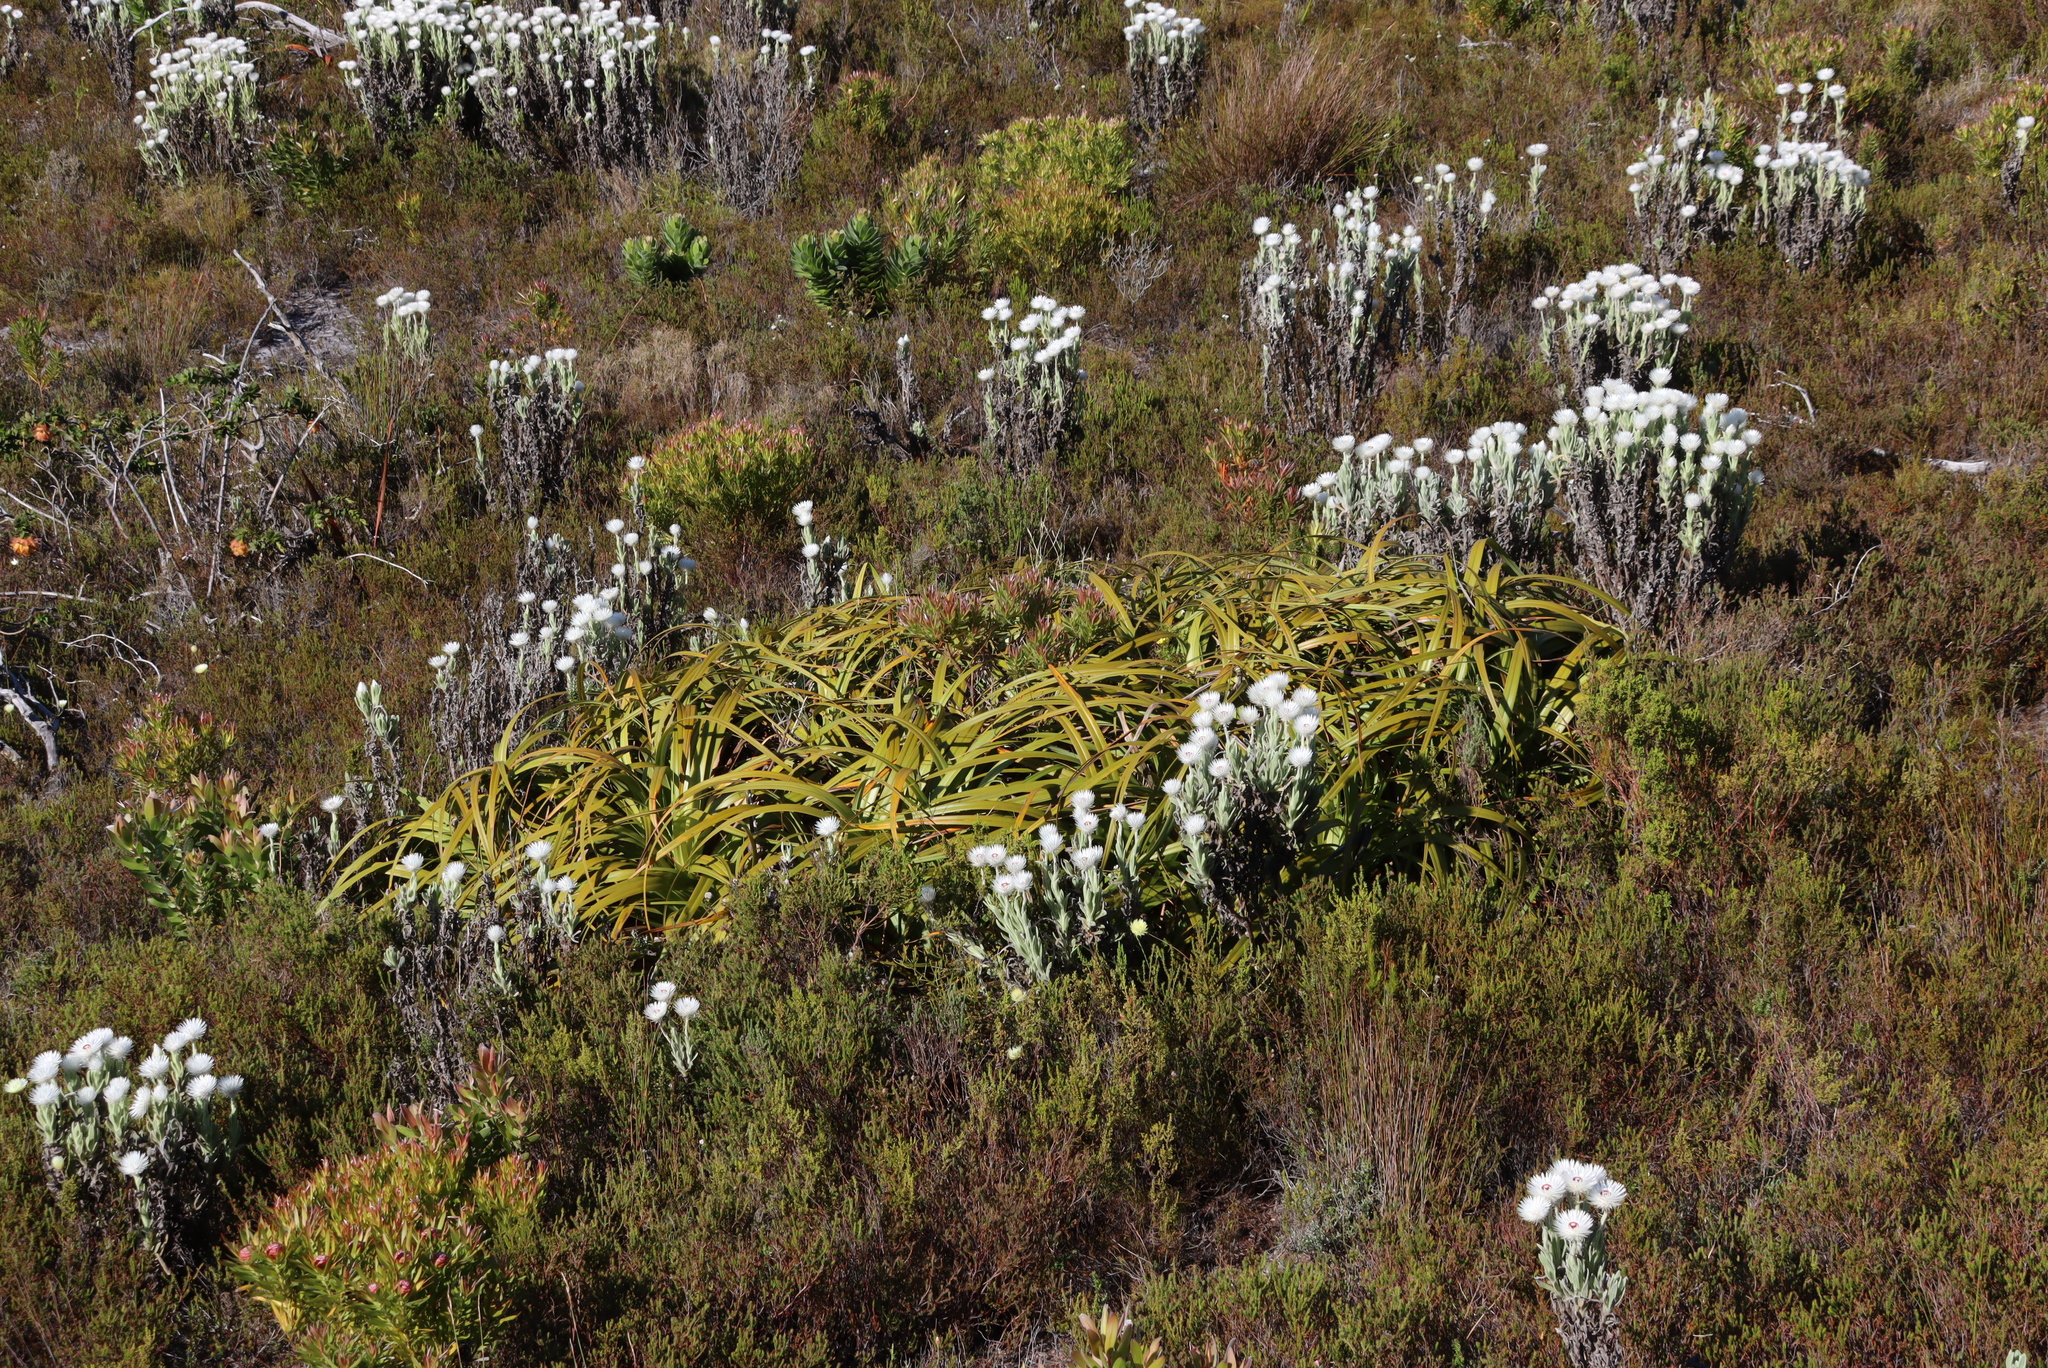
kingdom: Plantae
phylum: Tracheophyta
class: Liliopsida
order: Poales
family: Cyperaceae
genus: Tetraria
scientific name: Tetraria thermalis
